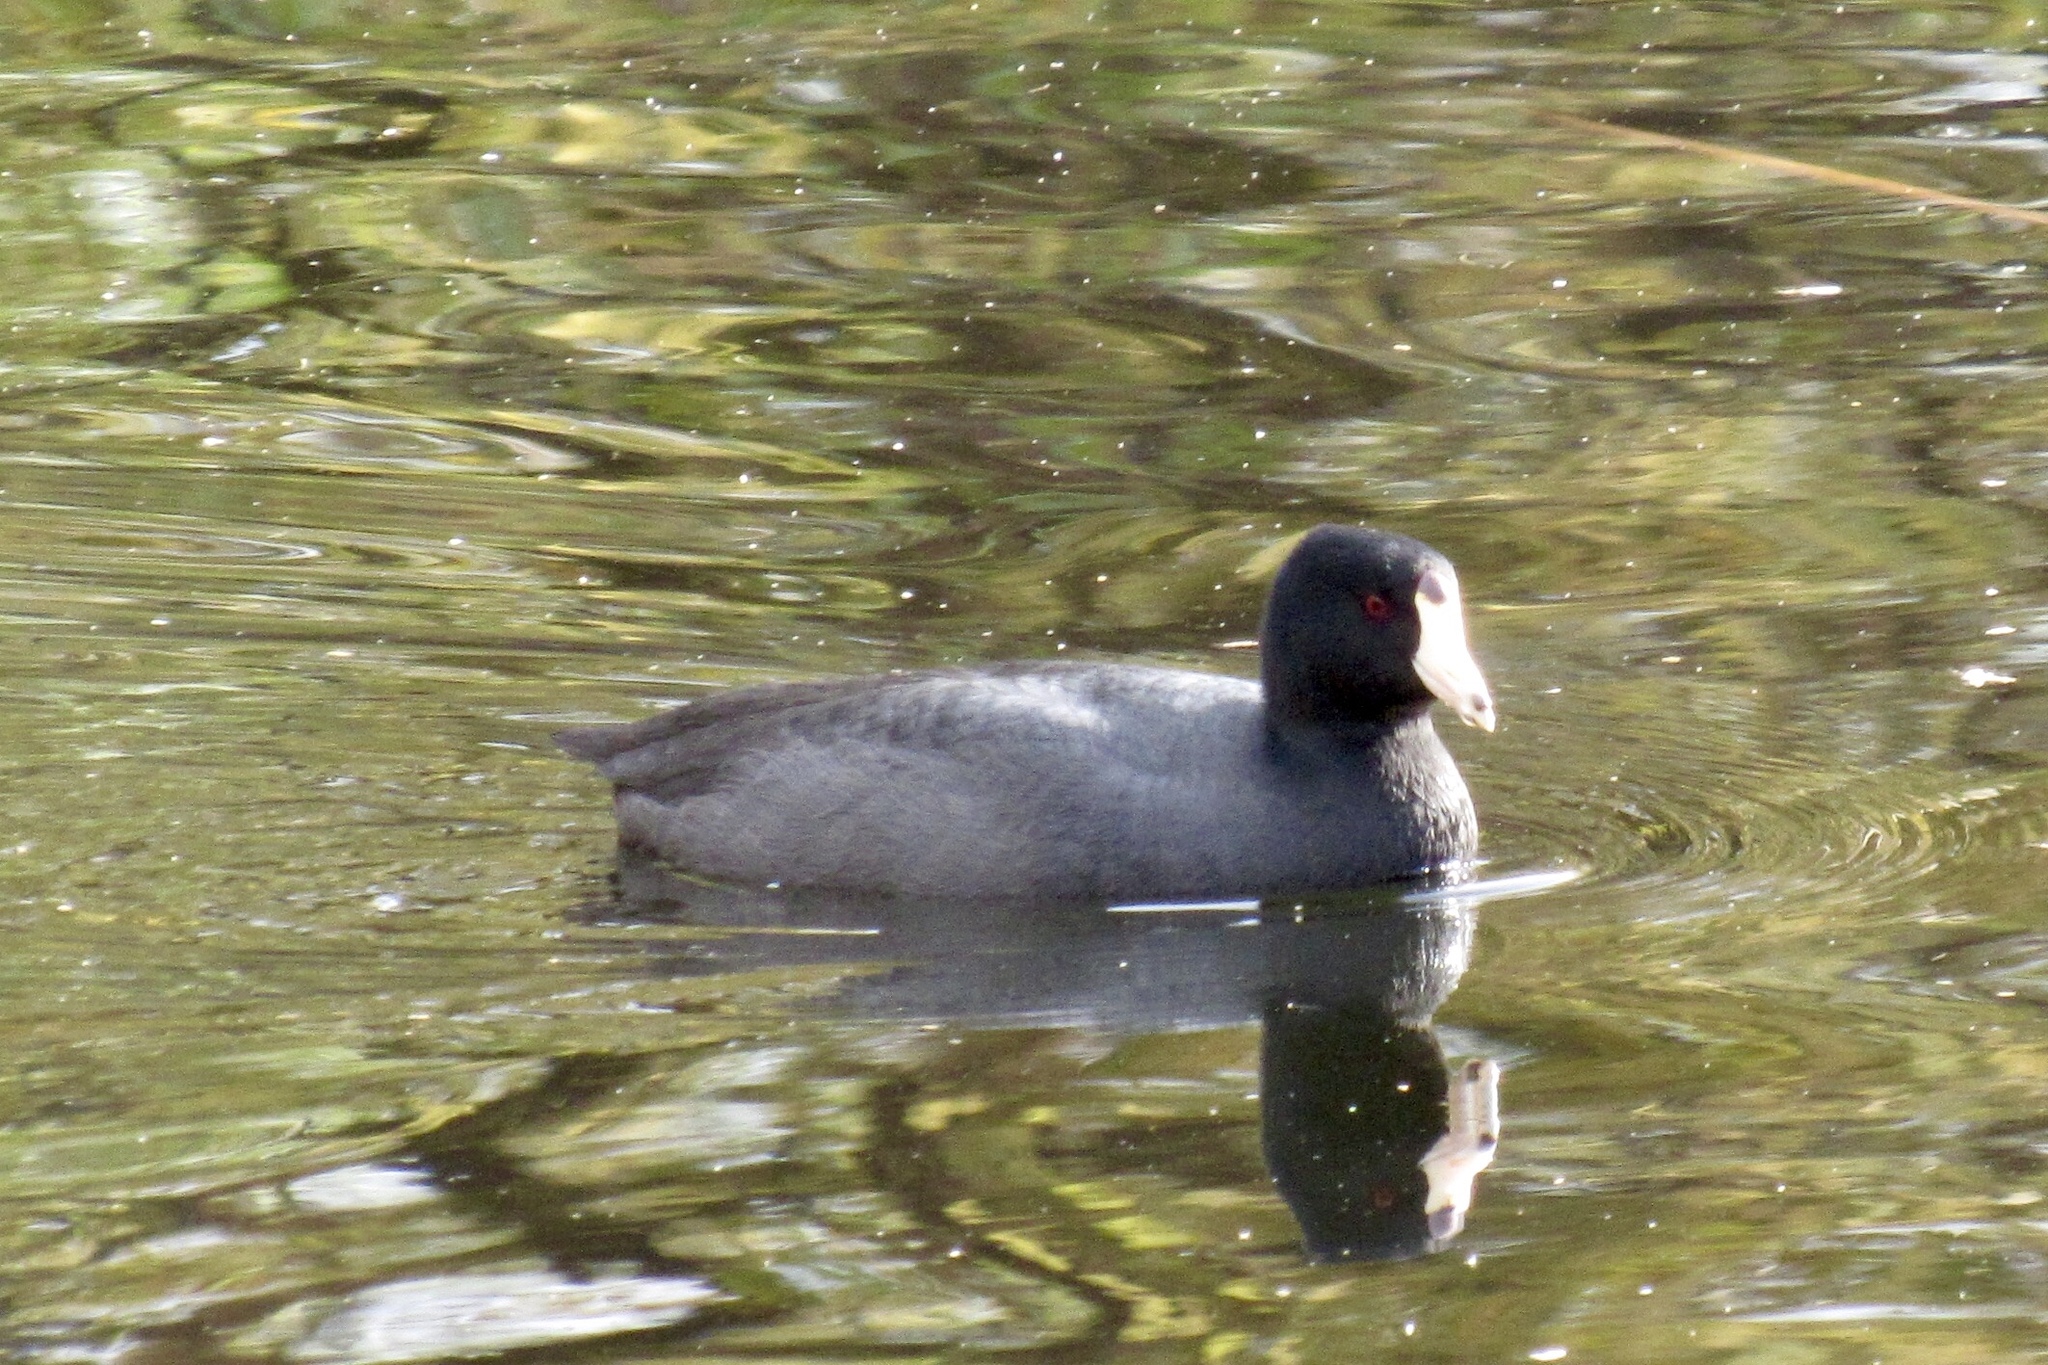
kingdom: Animalia
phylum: Chordata
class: Aves
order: Gruiformes
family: Rallidae
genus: Fulica
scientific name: Fulica americana
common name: American coot
